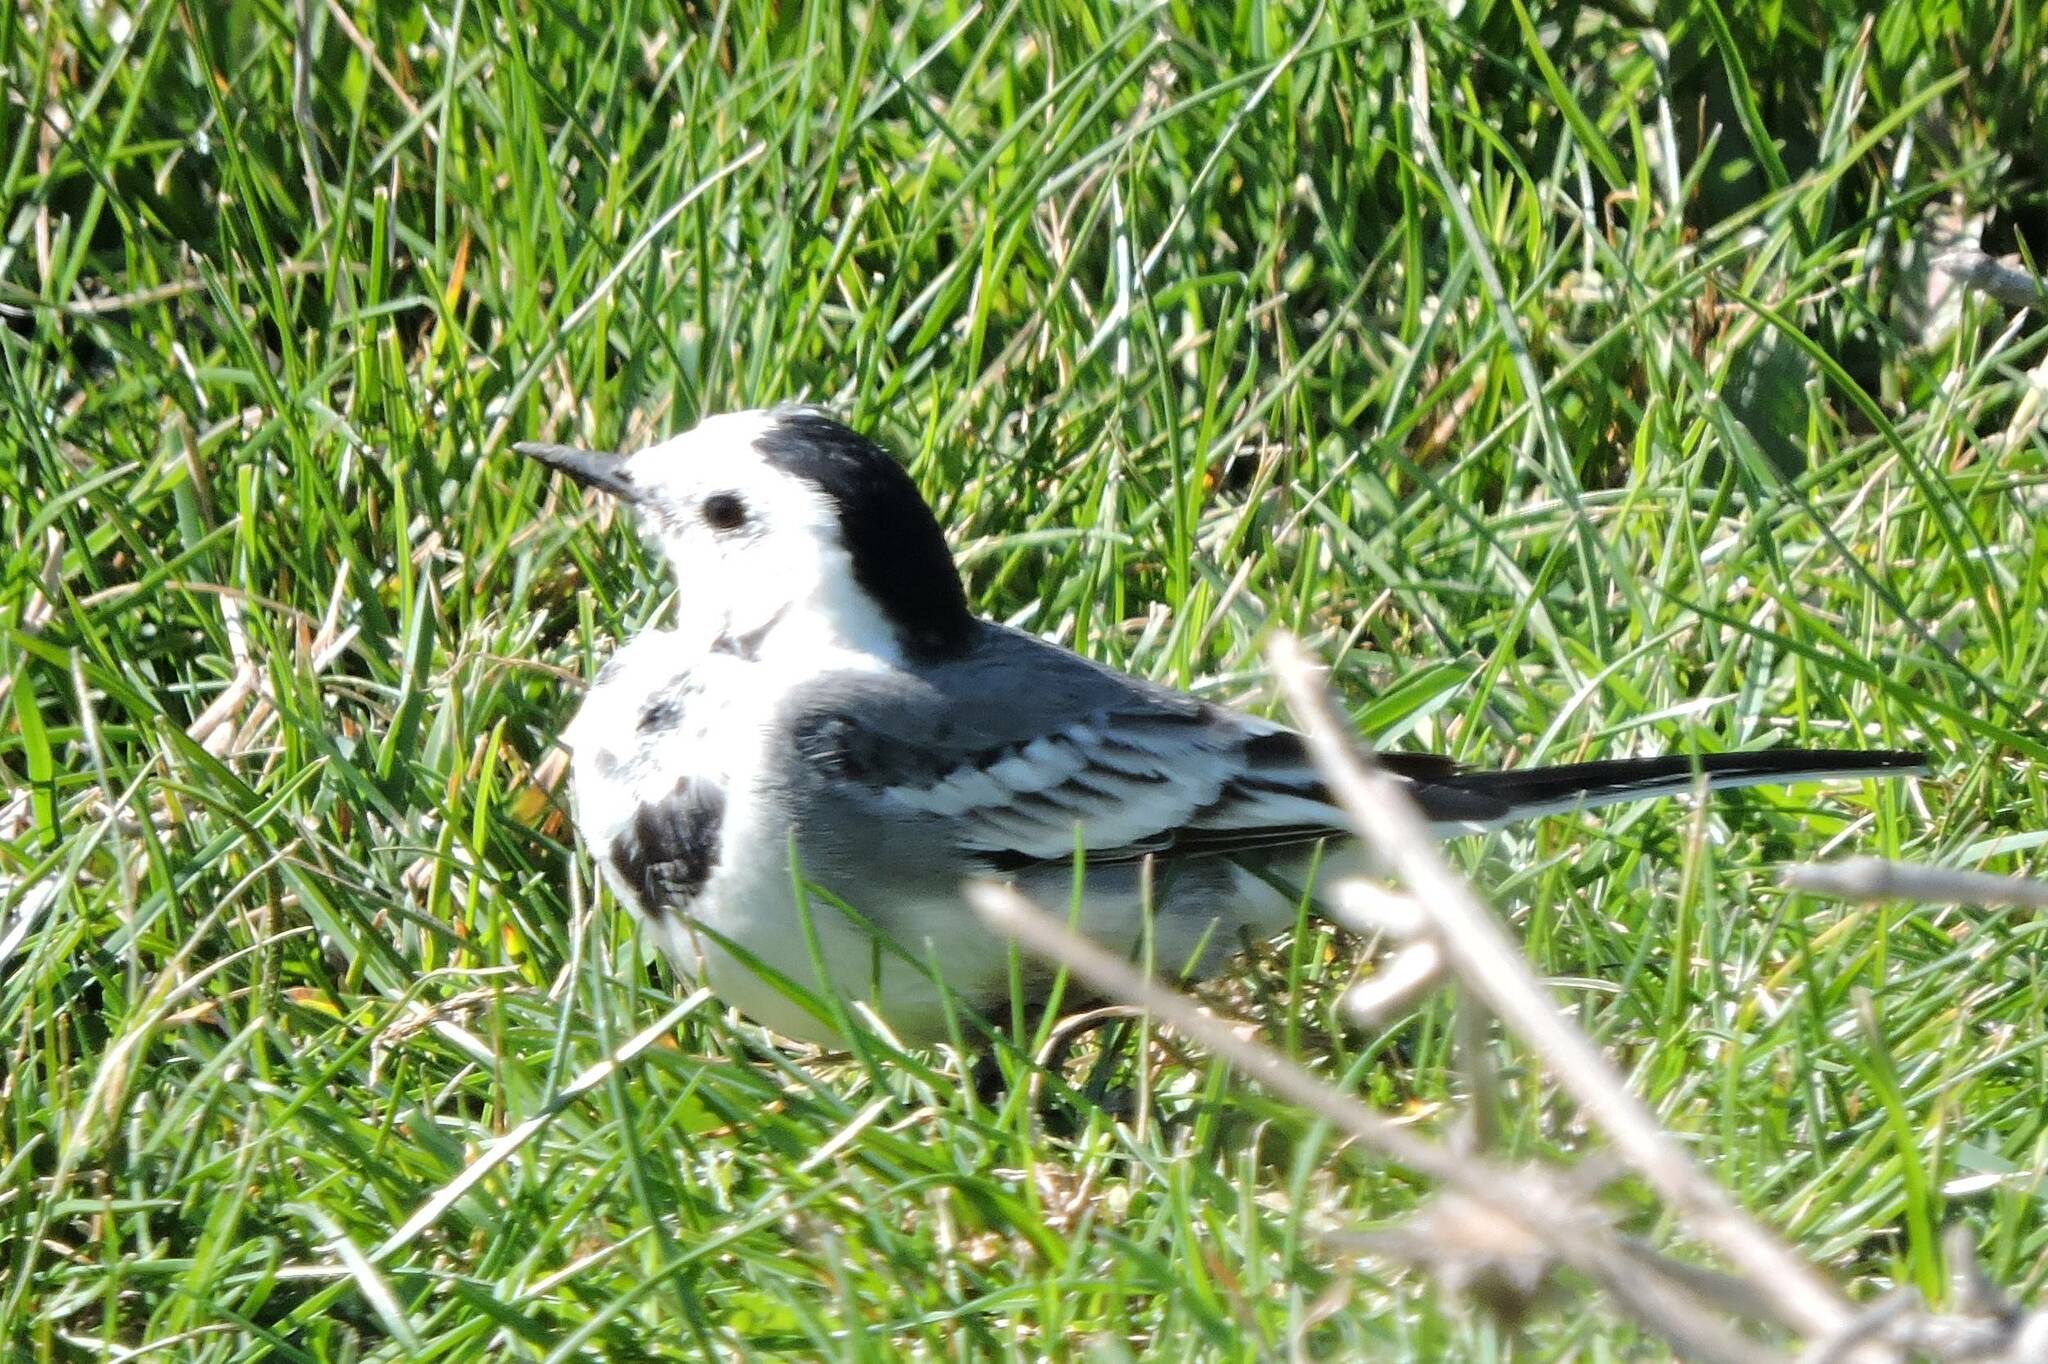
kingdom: Animalia
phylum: Chordata
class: Aves
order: Passeriformes
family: Motacillidae
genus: Motacilla
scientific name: Motacilla alba
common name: White wagtail
